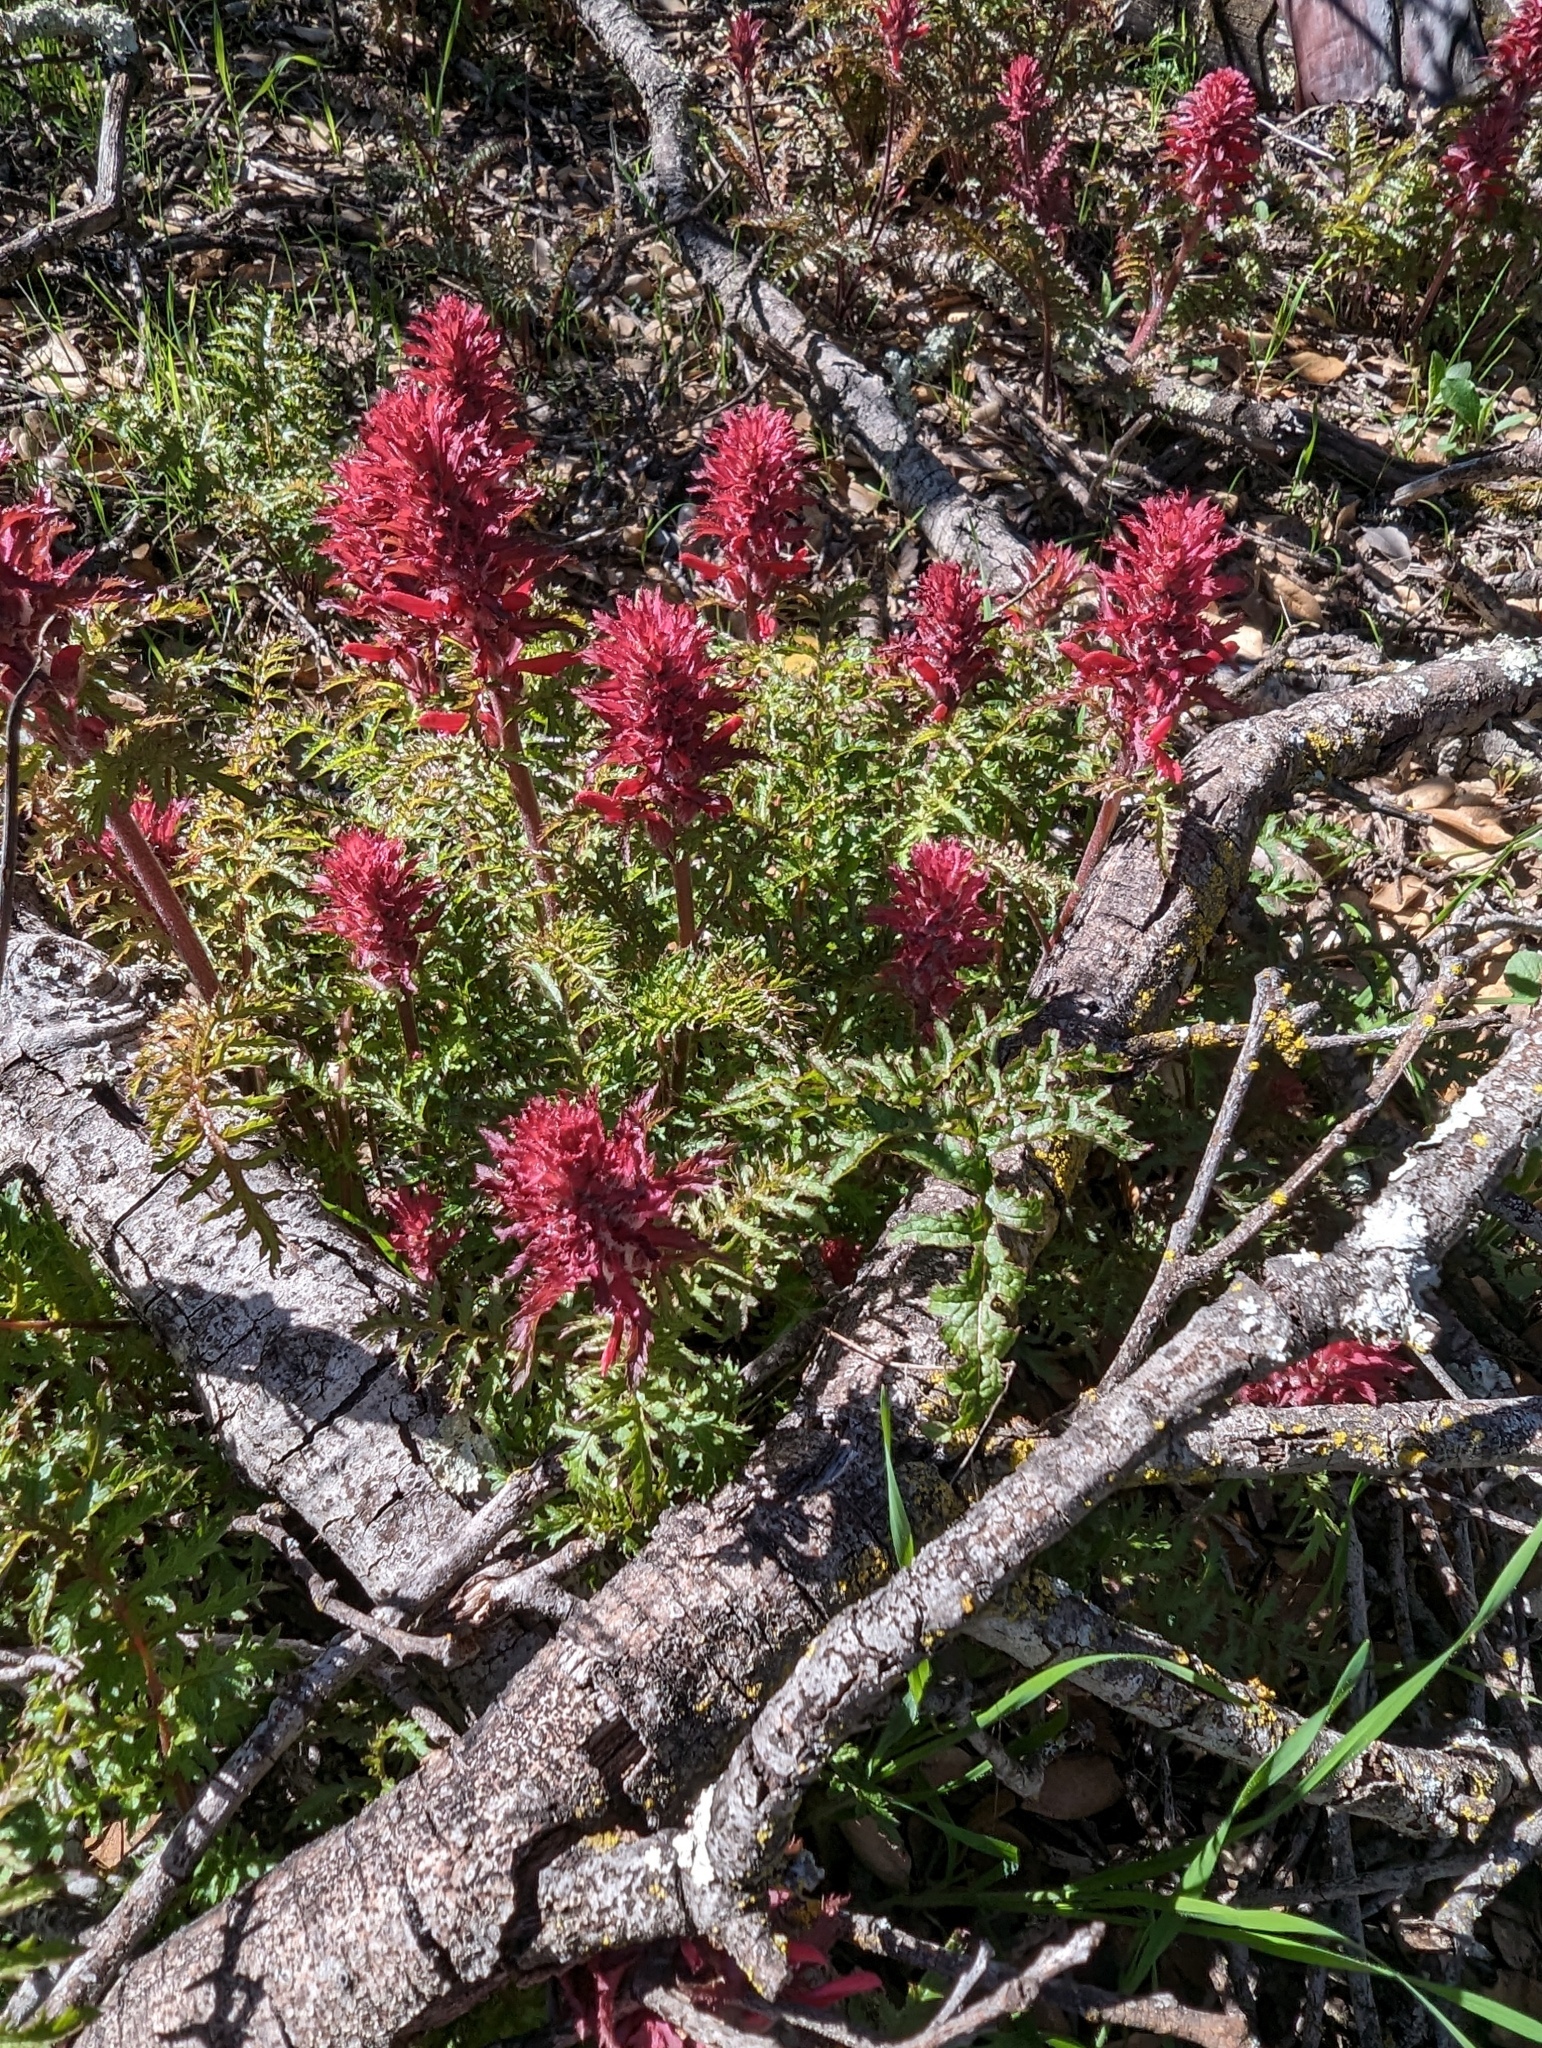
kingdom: Plantae
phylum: Tracheophyta
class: Magnoliopsida
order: Lamiales
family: Orobanchaceae
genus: Pedicularis
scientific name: Pedicularis densiflora
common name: Indian warrior
